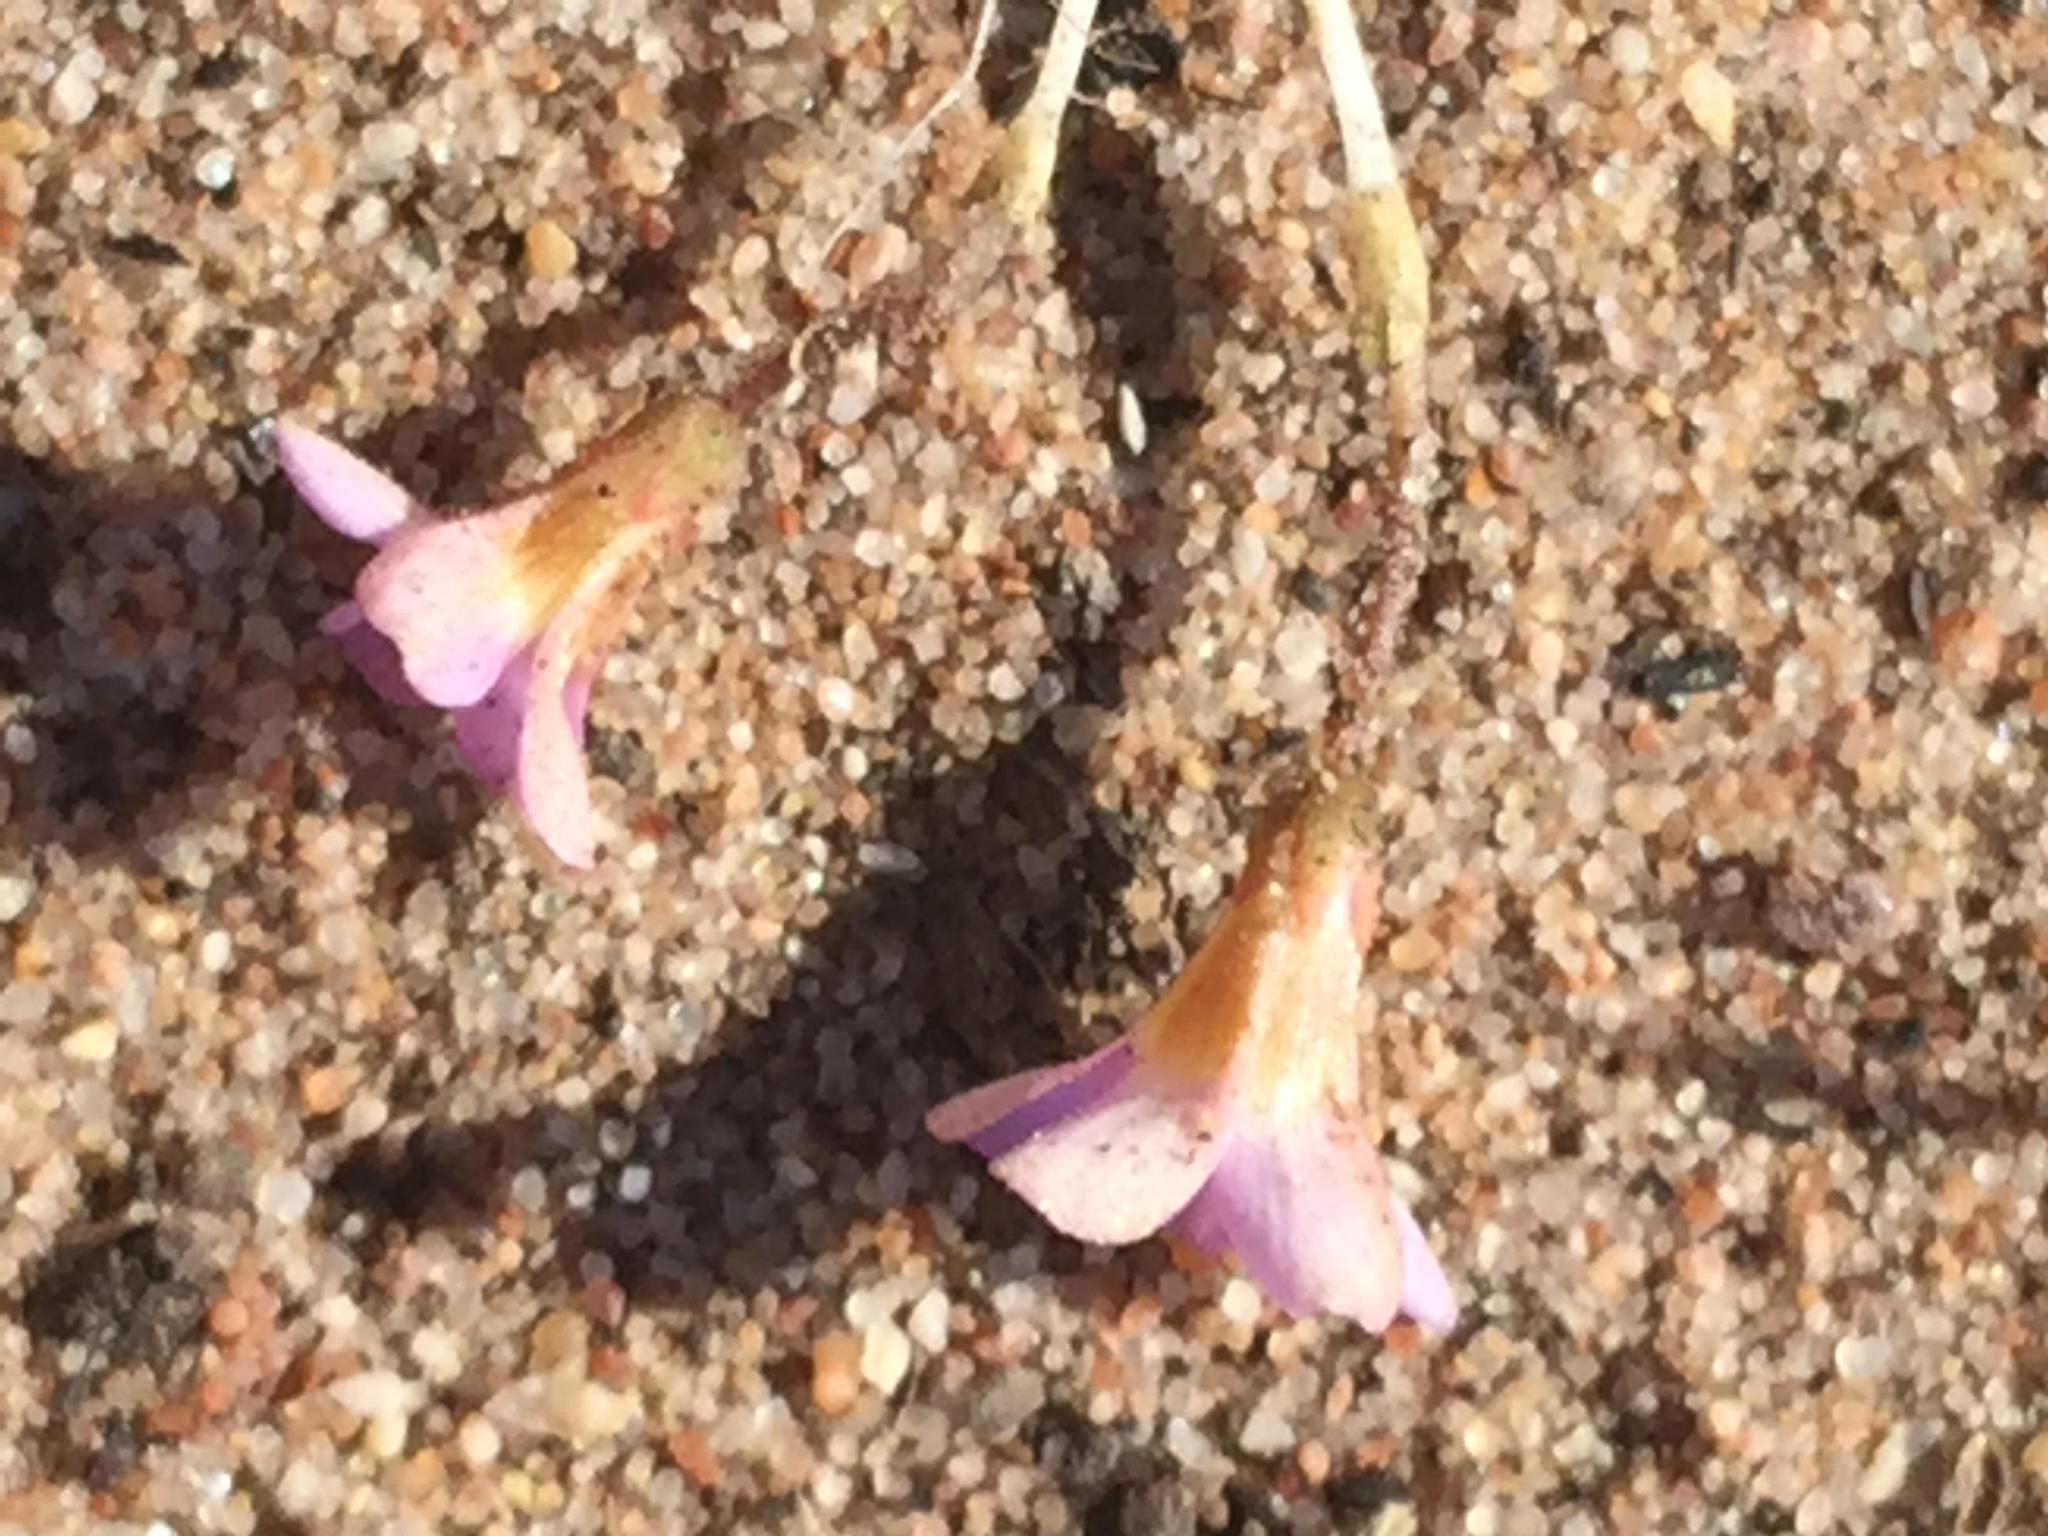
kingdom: Plantae
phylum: Tracheophyta
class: Magnoliopsida
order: Oxalidales
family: Oxalidaceae
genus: Oxalis
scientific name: Oxalis punctata
